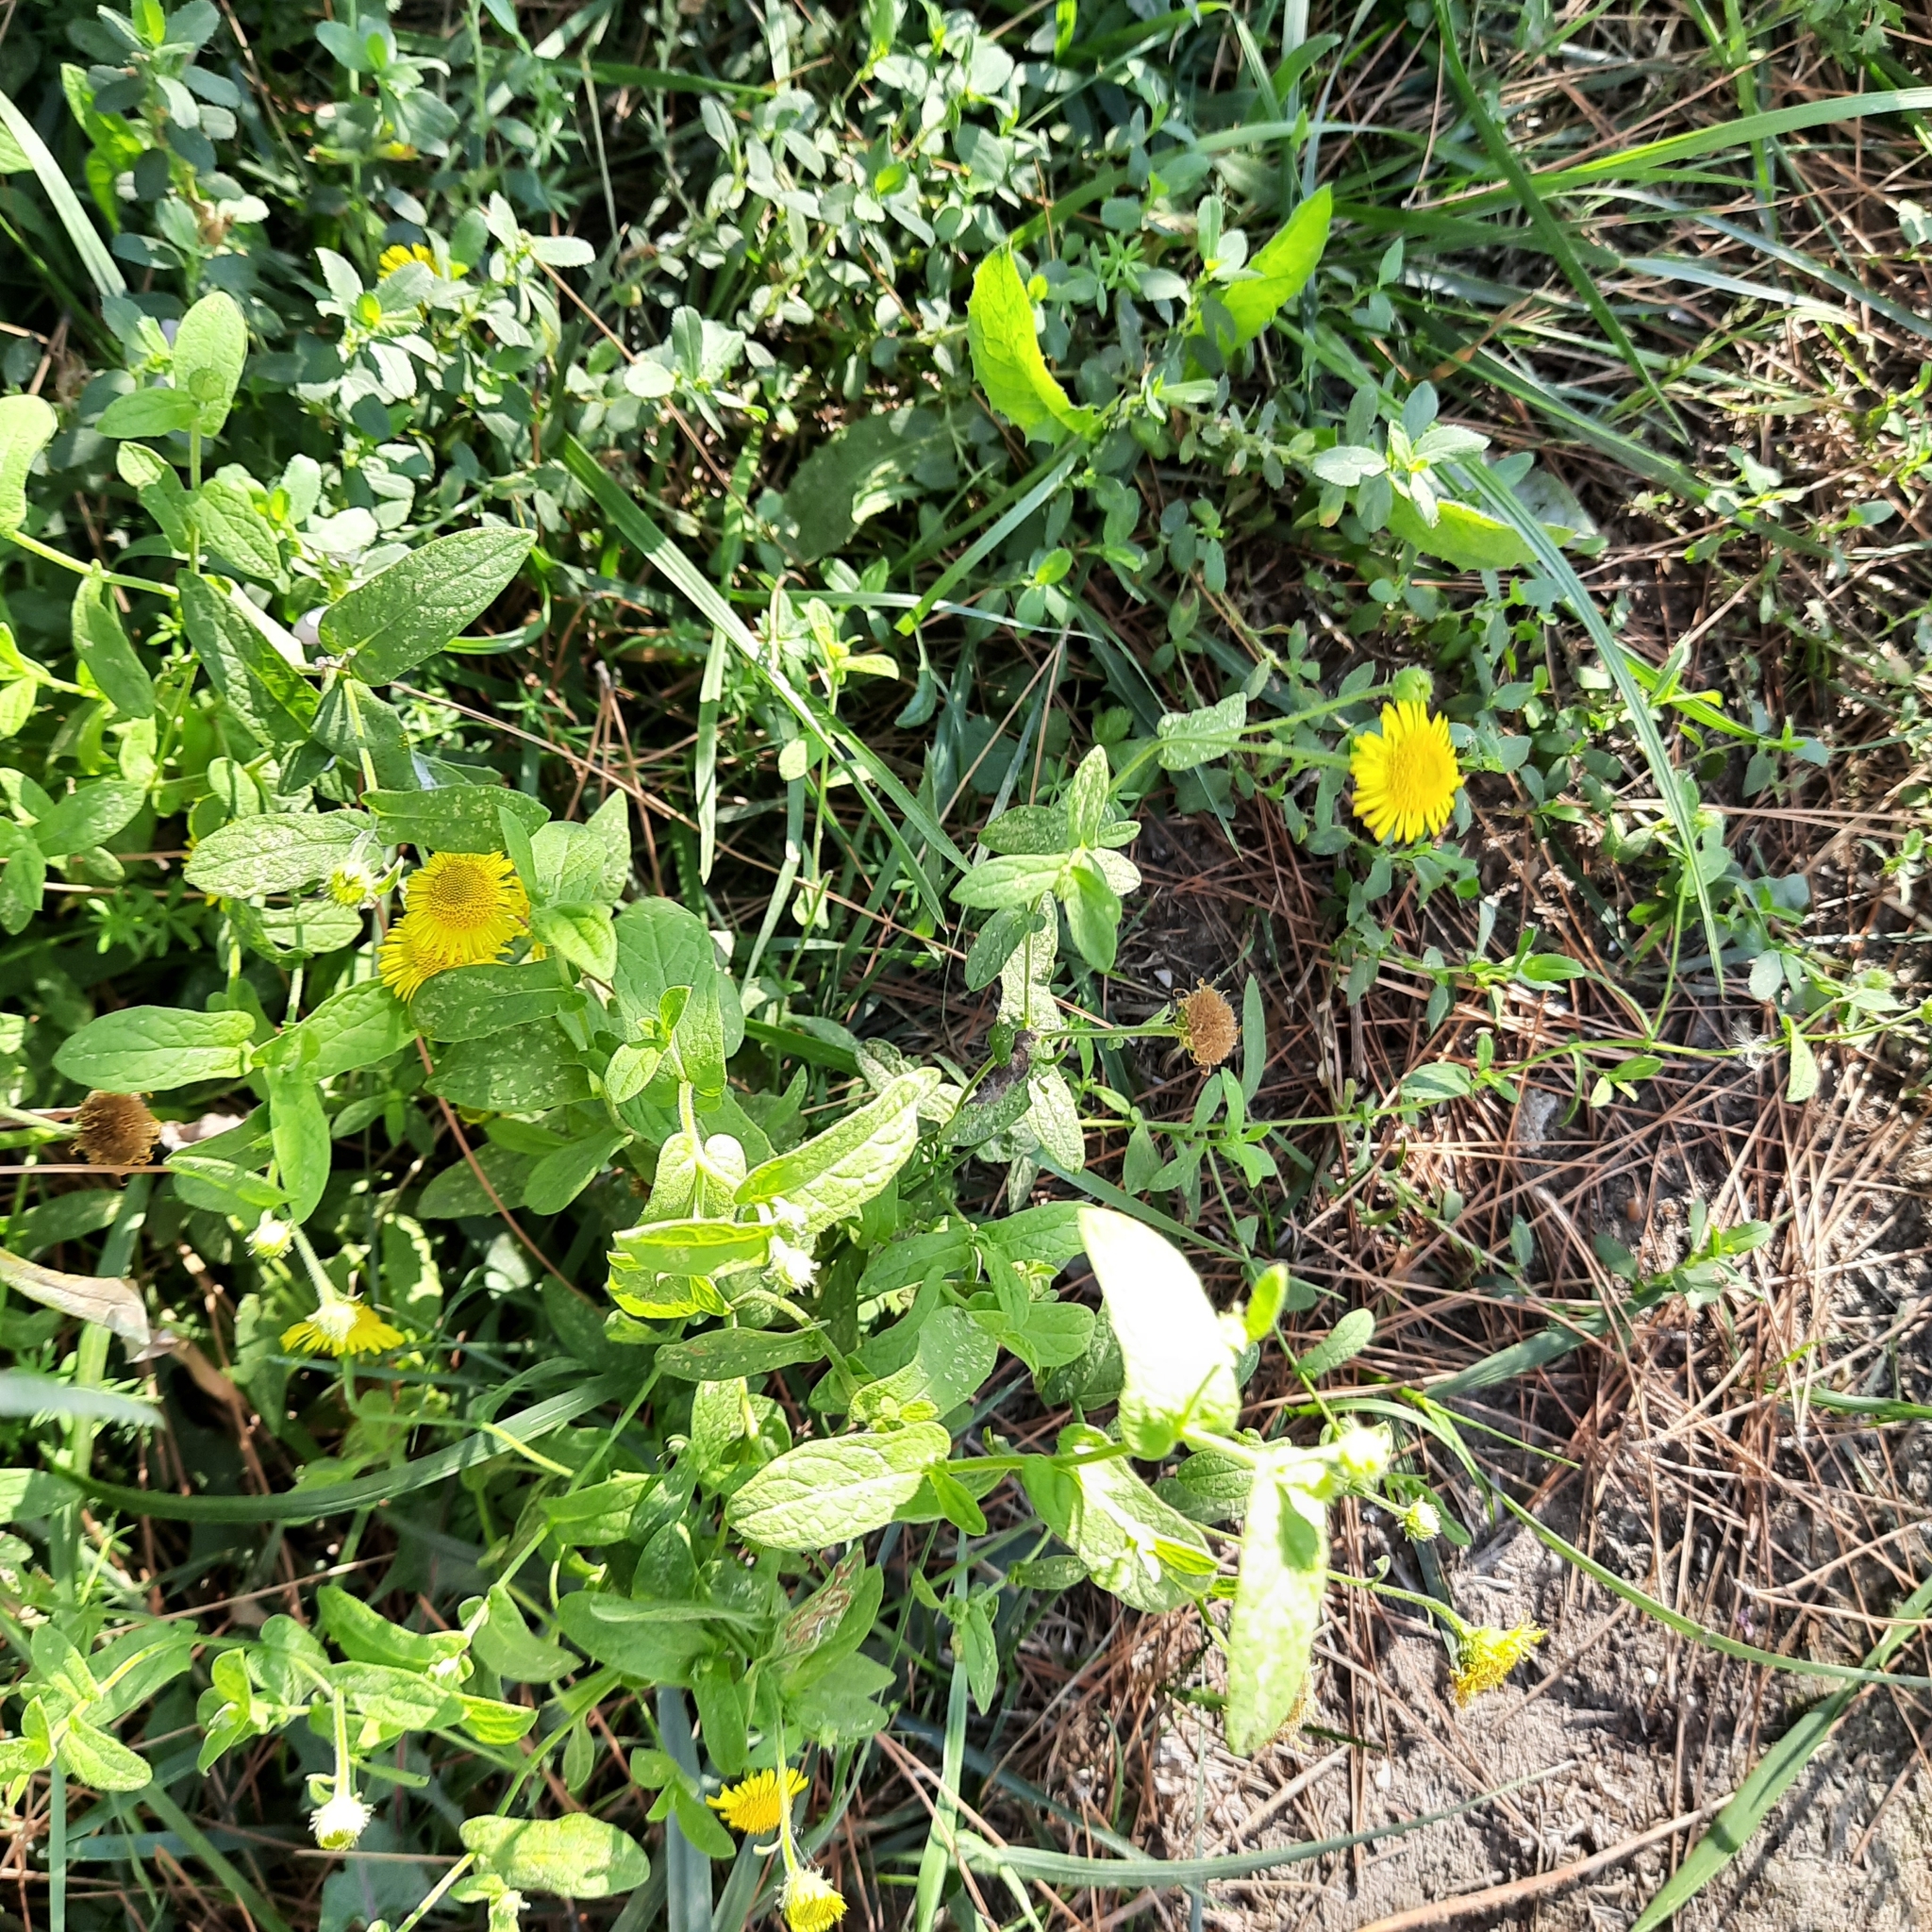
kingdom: Plantae
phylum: Tracheophyta
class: Magnoliopsida
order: Asterales
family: Asteraceae
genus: Pulicaria
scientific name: Pulicaria dysenterica
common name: Common fleabane
